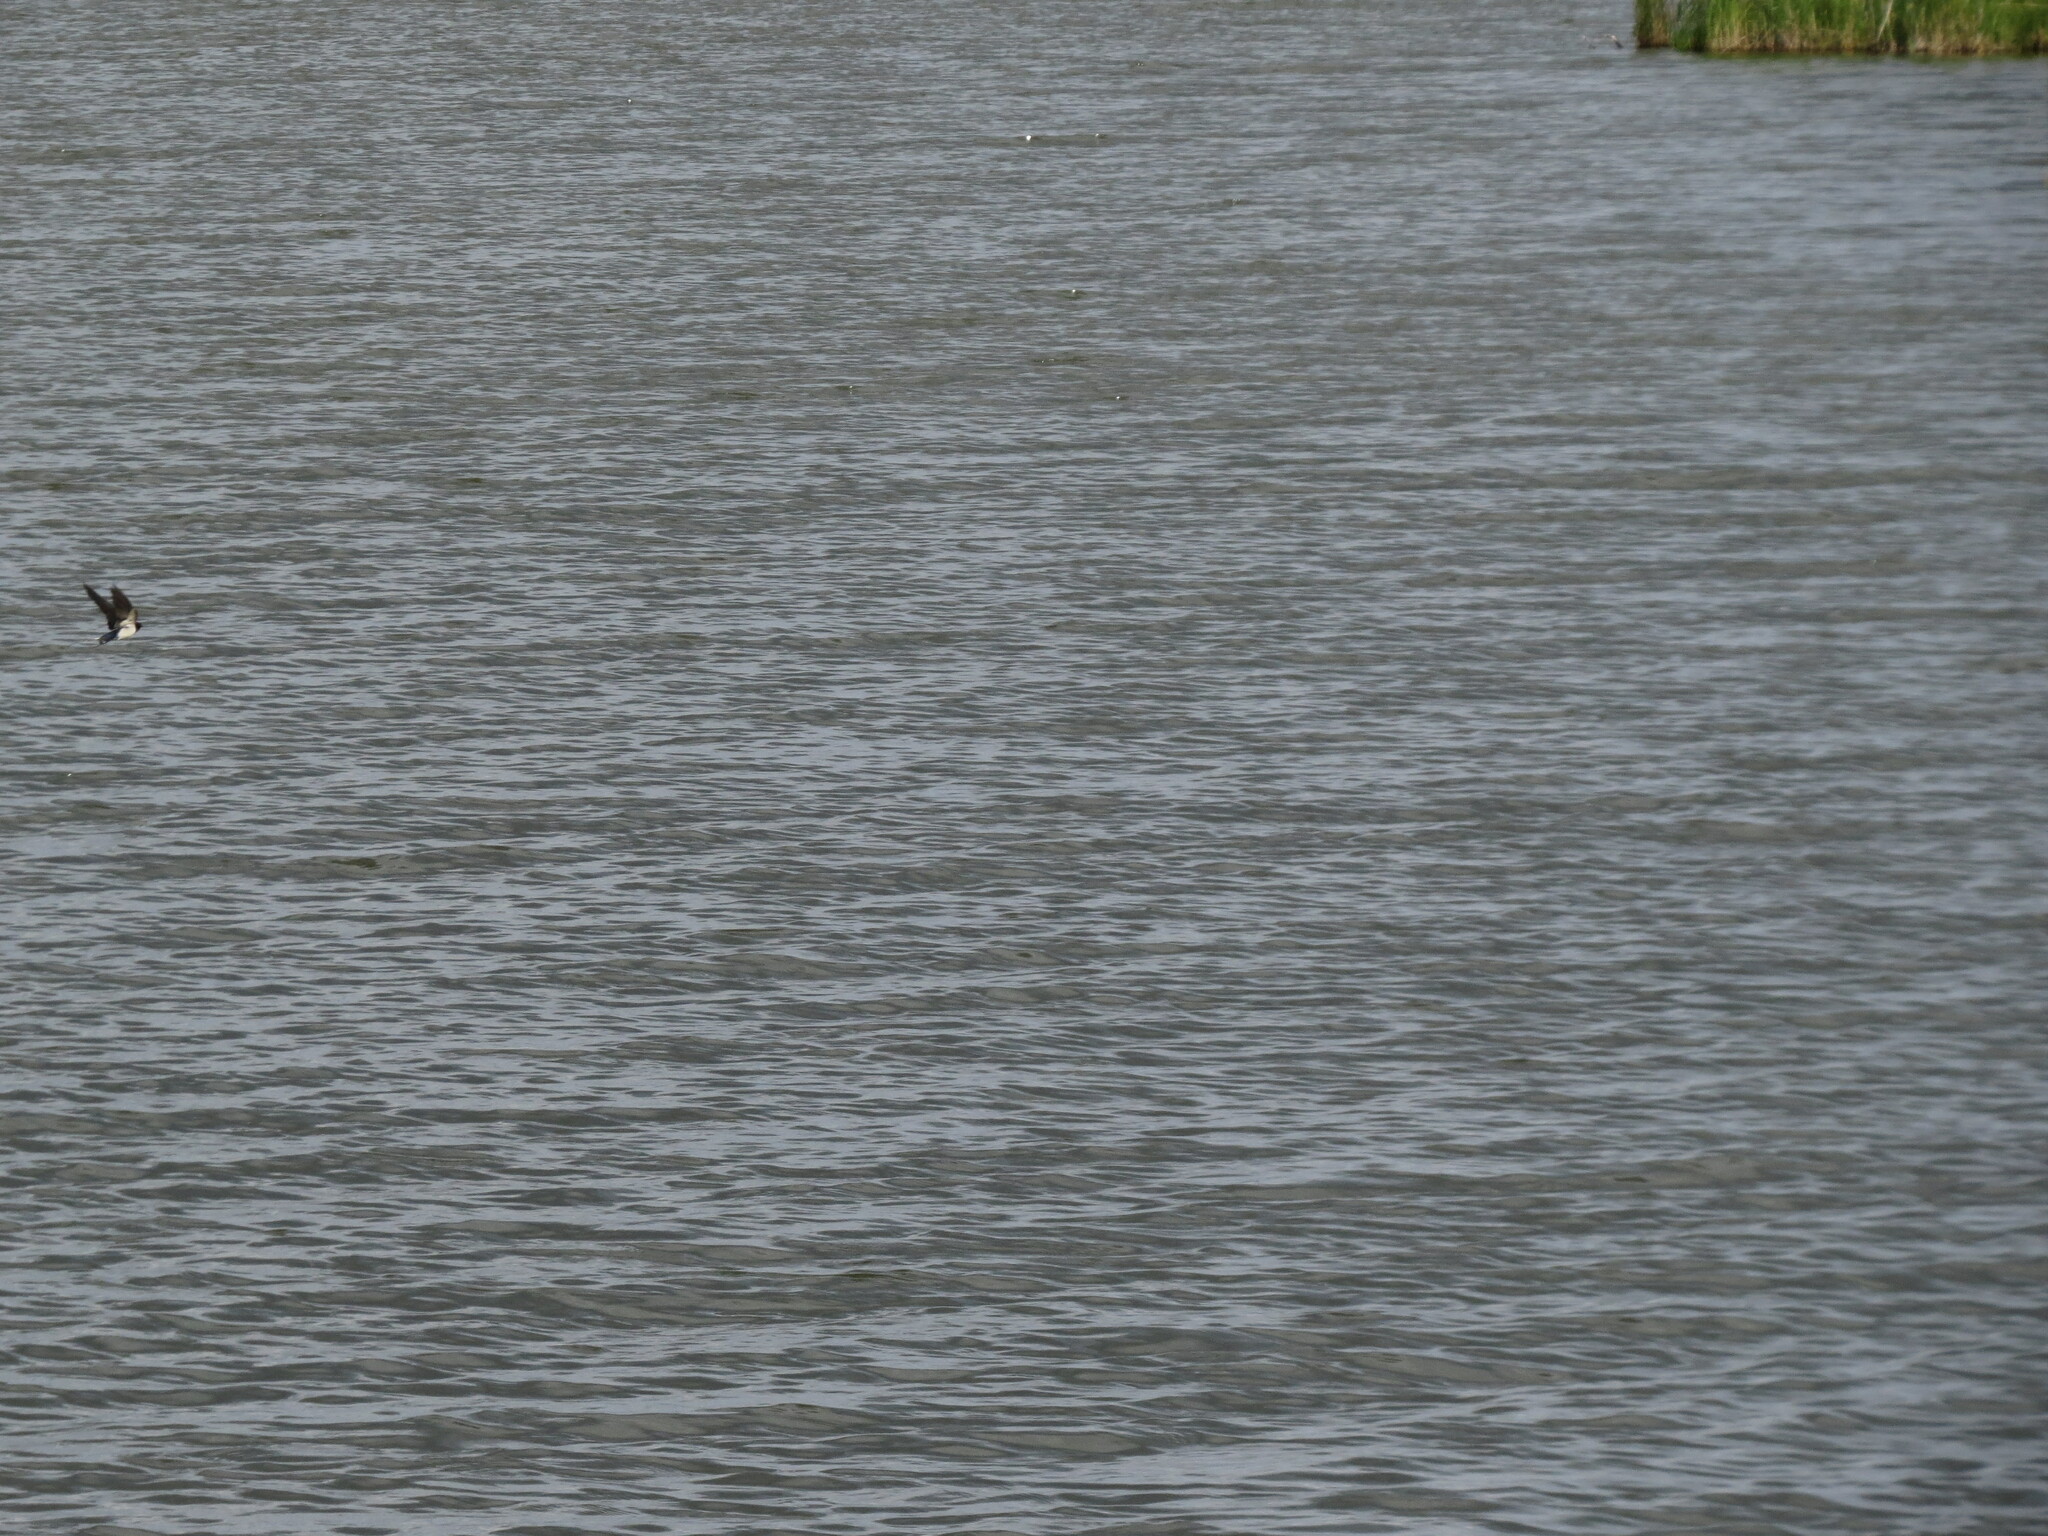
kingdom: Animalia
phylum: Chordata
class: Aves
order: Passeriformes
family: Hirundinidae
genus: Hirundo
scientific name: Hirundo rustica
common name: Barn swallow
